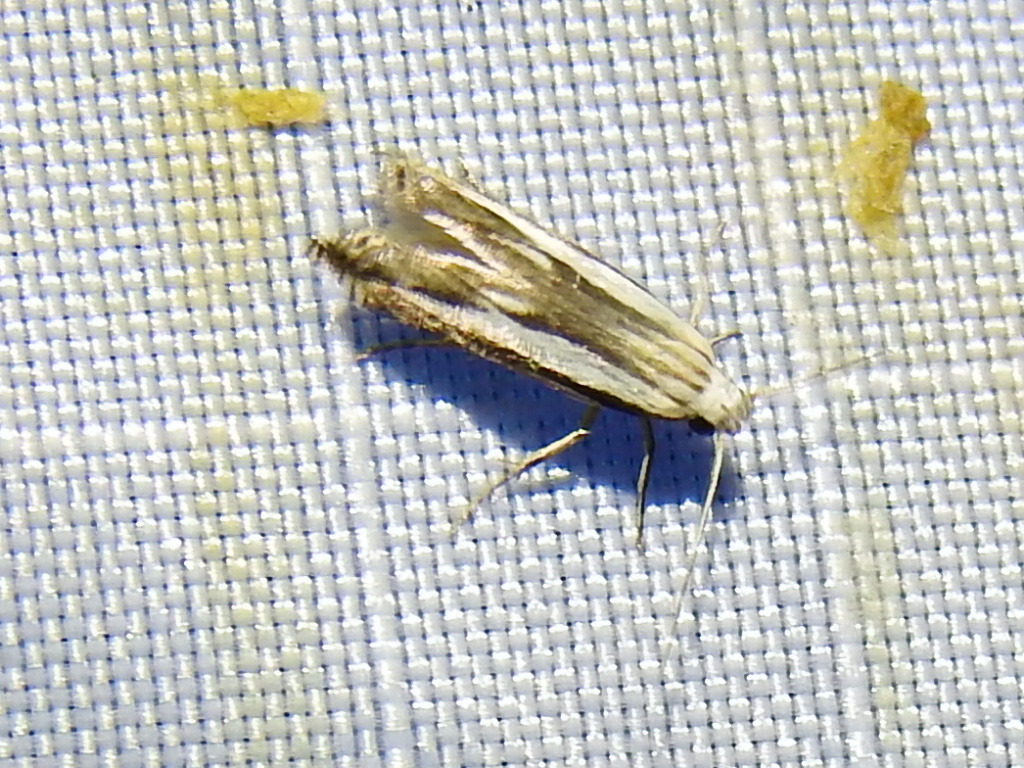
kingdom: Animalia
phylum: Arthropoda
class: Insecta
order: Lepidoptera
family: Gelechiidae
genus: Polyhymno
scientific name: Polyhymno luteostrigella
